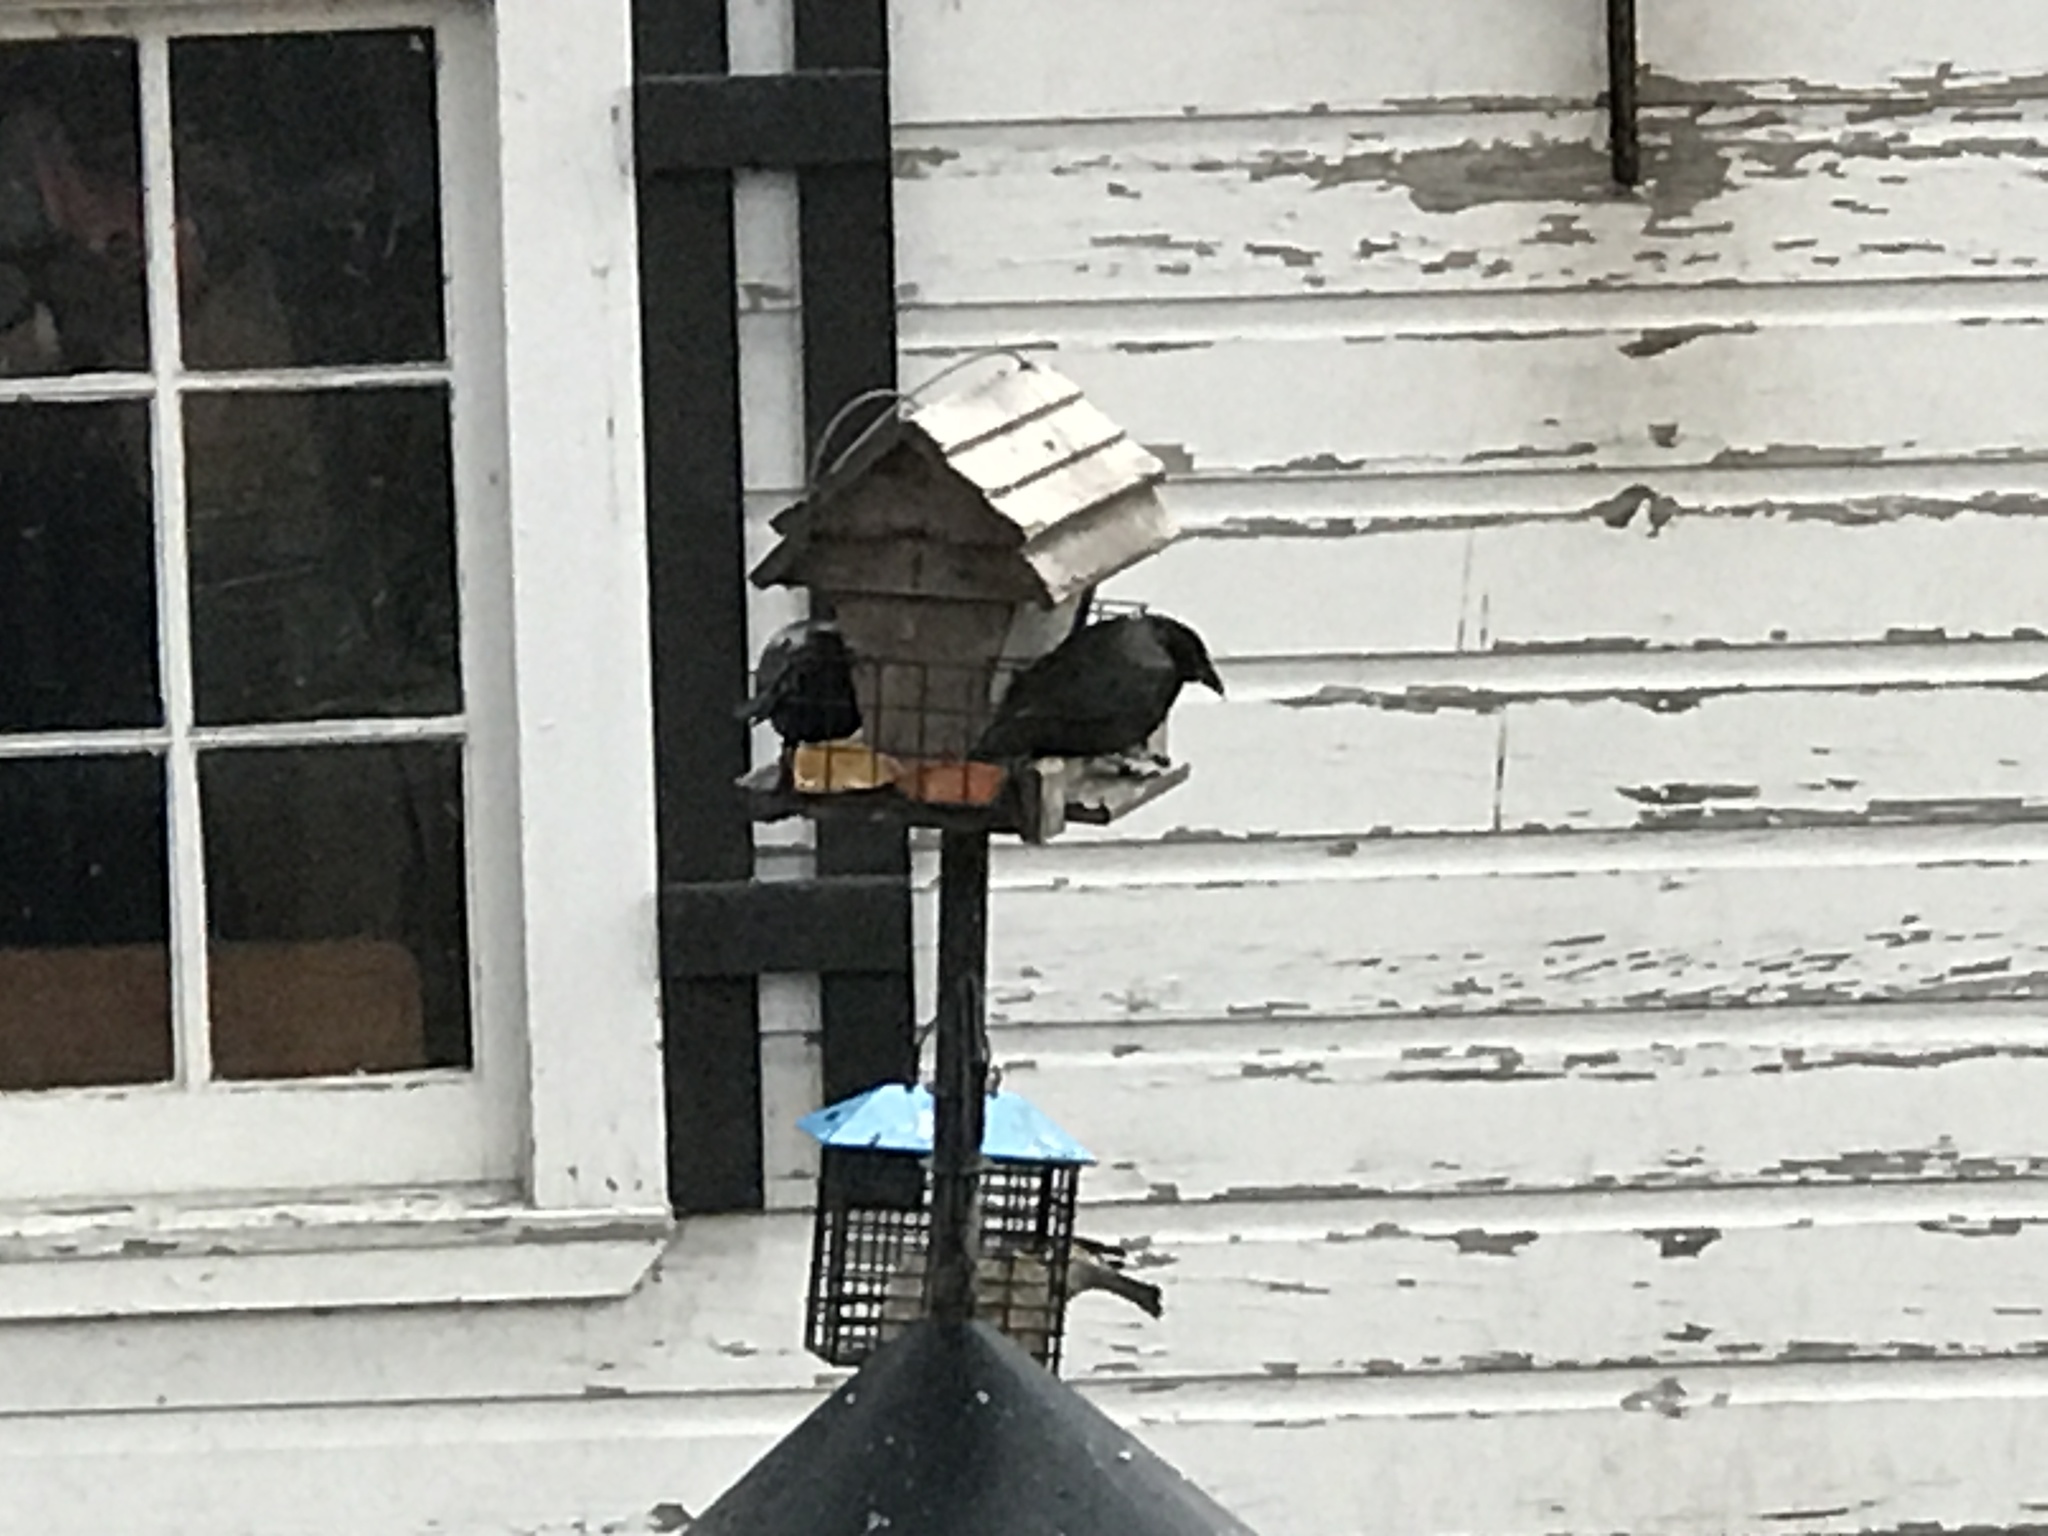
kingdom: Animalia
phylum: Chordata
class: Aves
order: Passeriformes
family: Icteridae
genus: Quiscalus
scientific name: Quiscalus quiscula
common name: Common grackle
